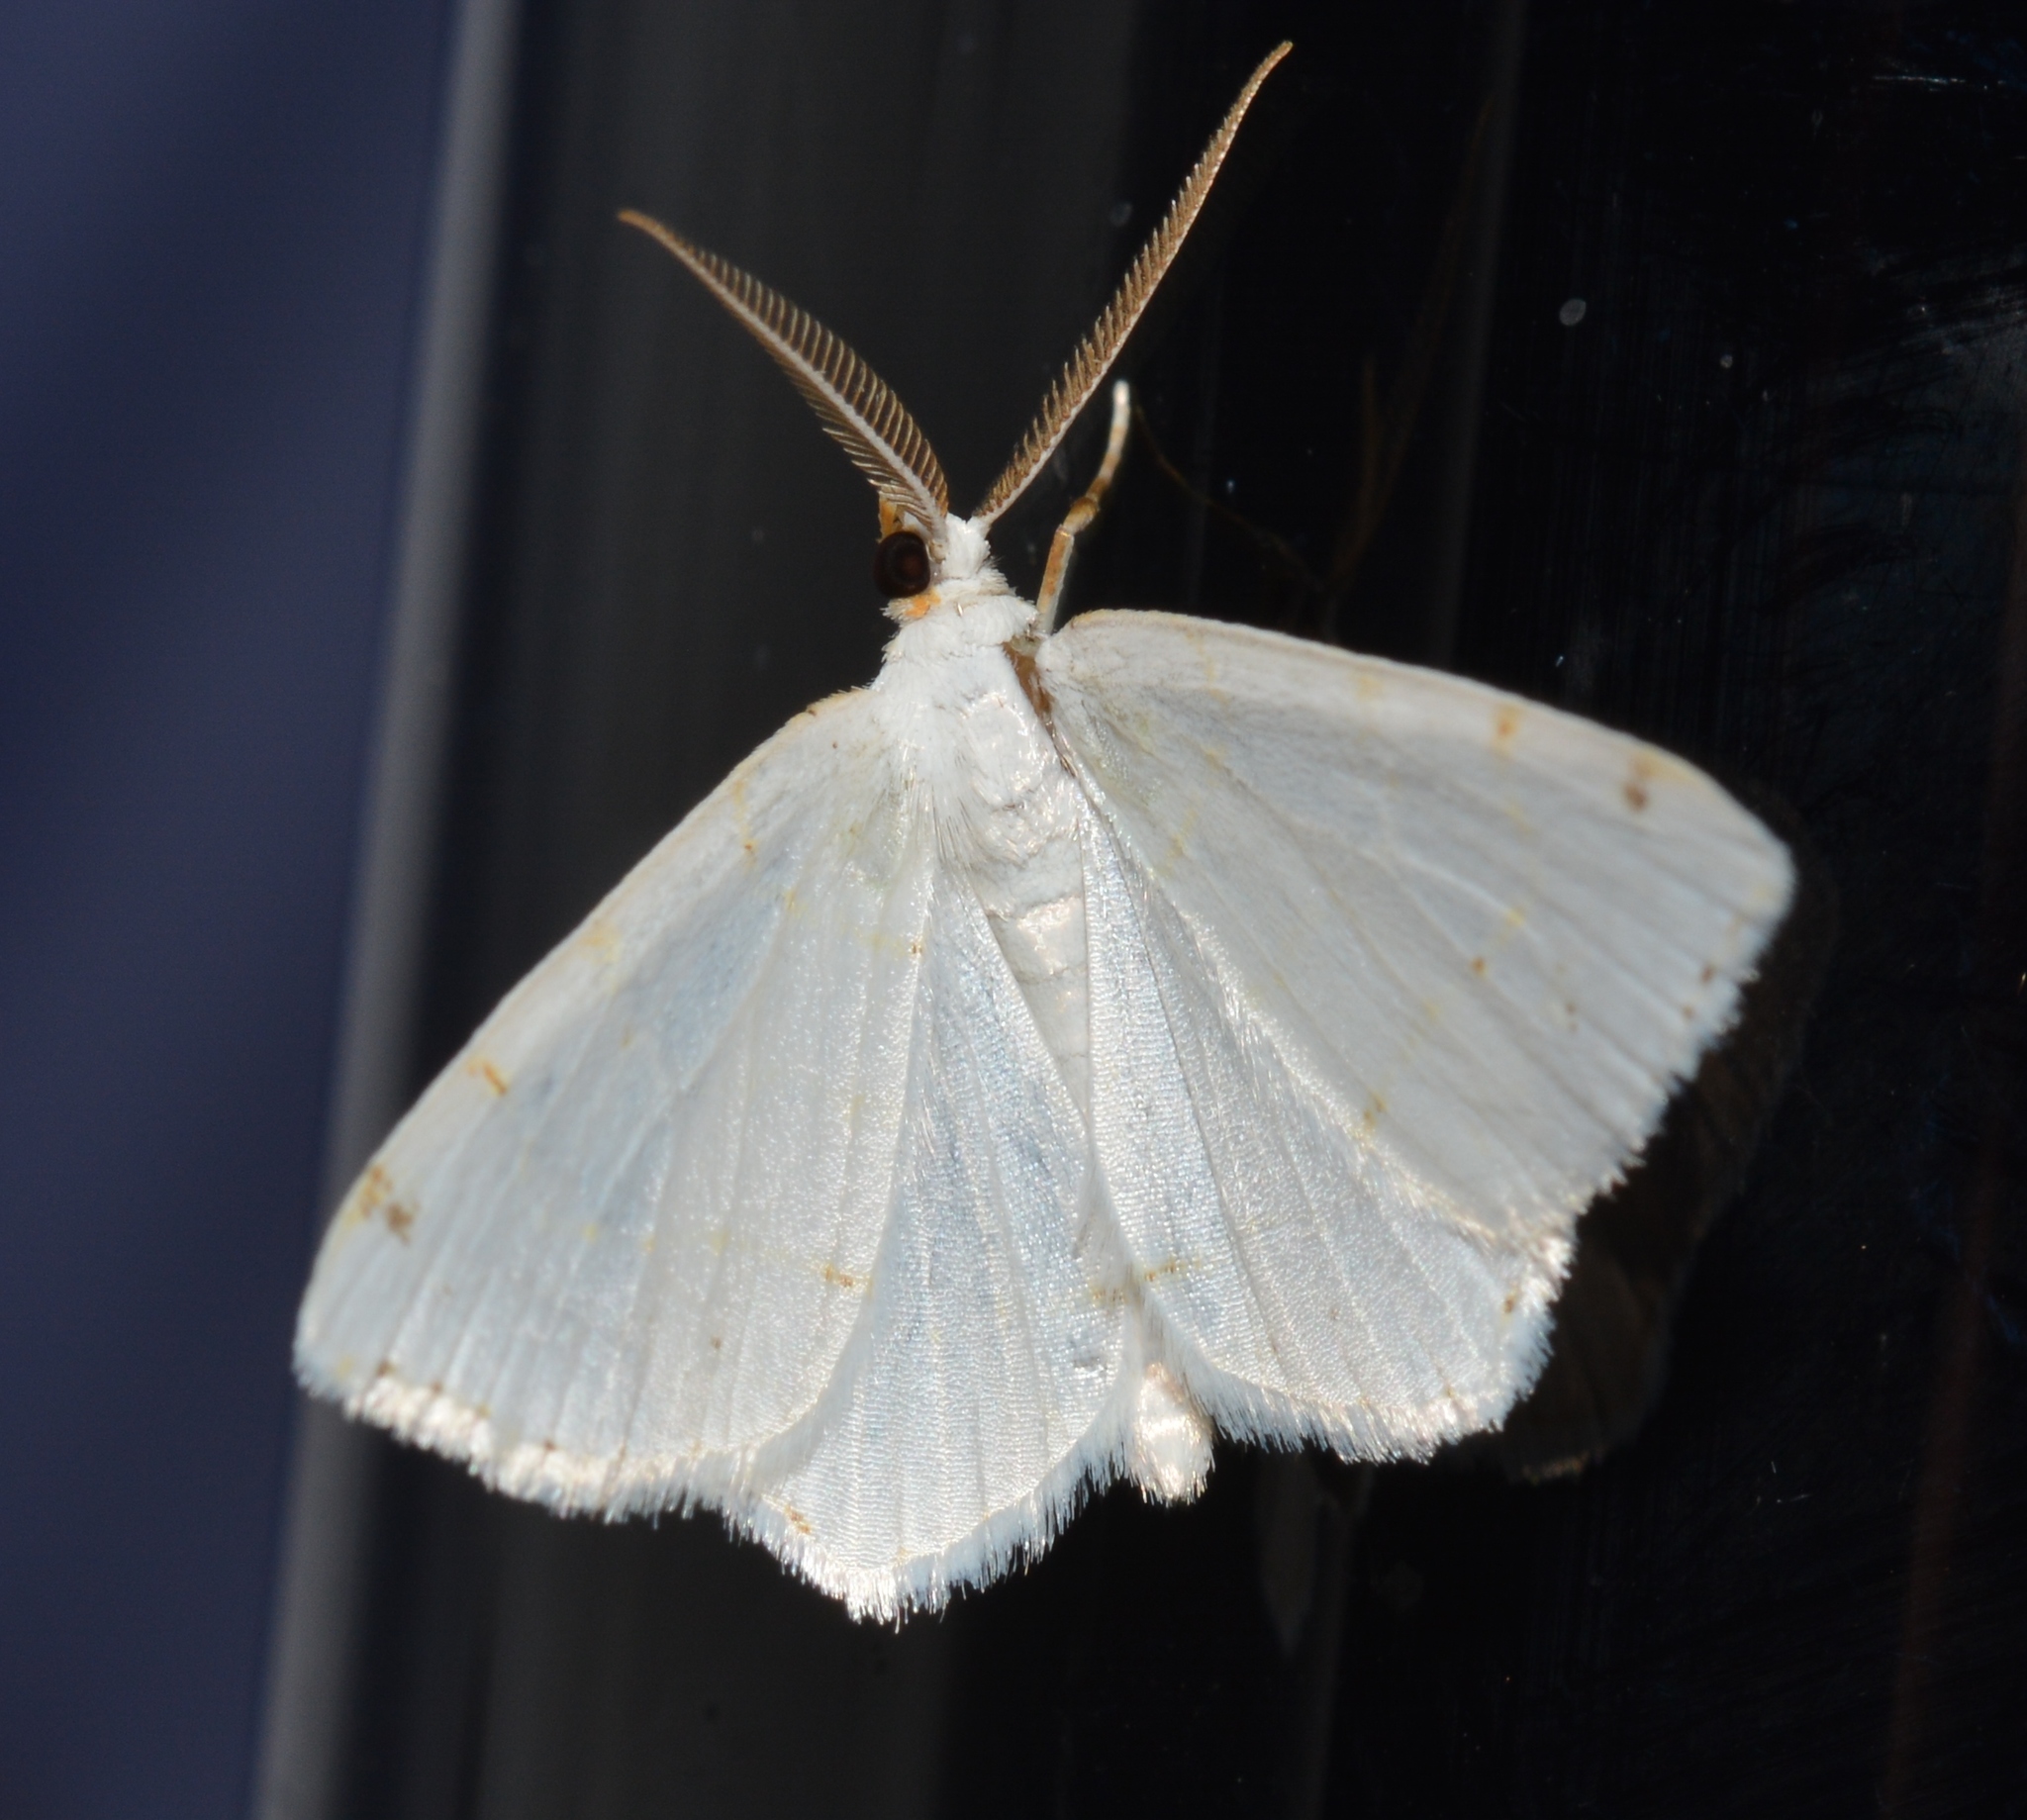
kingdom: Animalia
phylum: Arthropoda
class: Insecta
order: Lepidoptera
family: Geometridae
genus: Macaria
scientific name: Macaria pustularia
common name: Lesser maple spanworm moth
